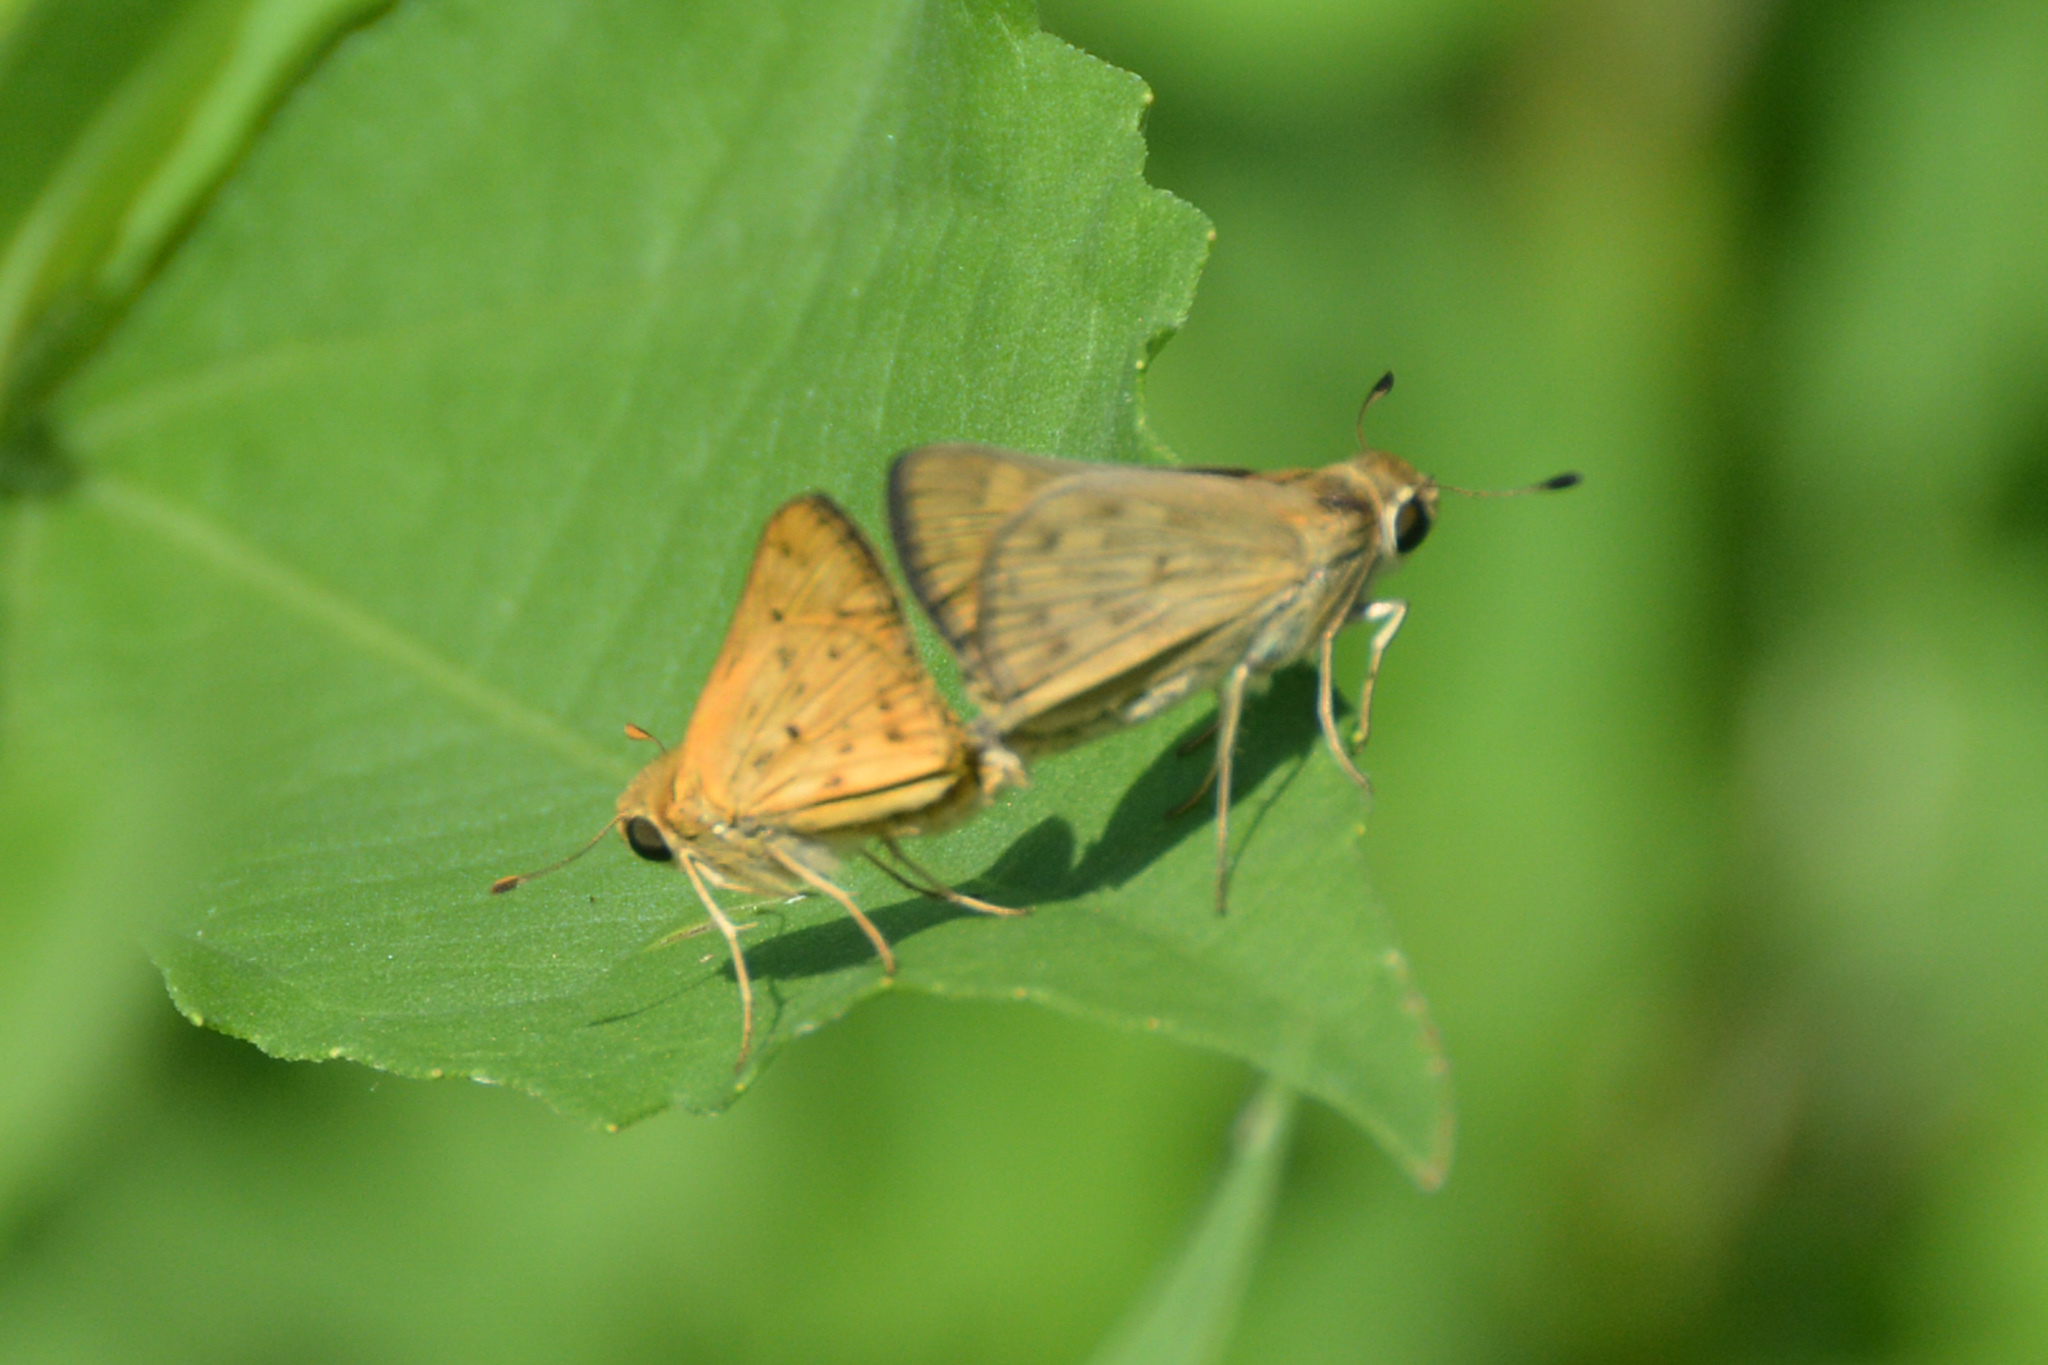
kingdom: Animalia
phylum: Arthropoda
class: Insecta
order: Lepidoptera
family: Hesperiidae
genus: Hylephila
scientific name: Hylephila phyleus
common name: Fiery skipper
